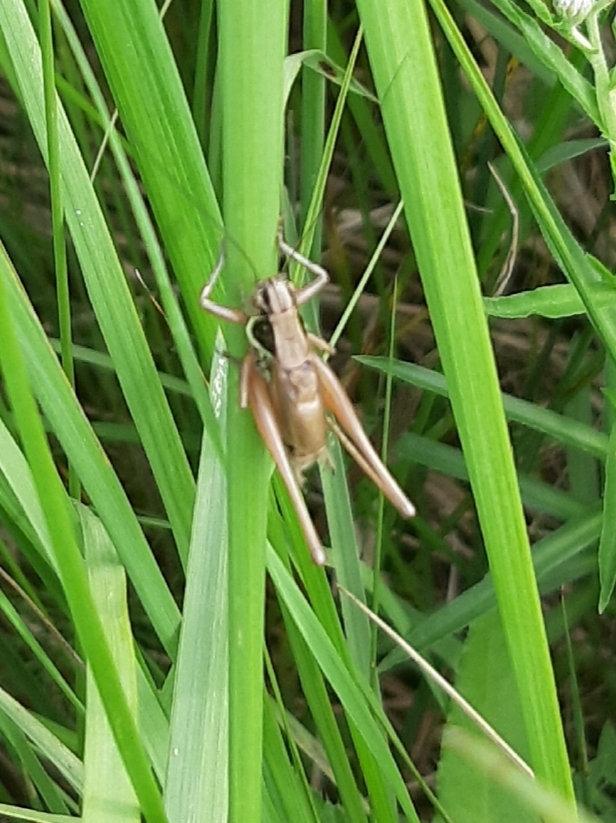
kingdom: Animalia
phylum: Arthropoda
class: Insecta
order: Orthoptera
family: Tettigoniidae
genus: Roeseliana
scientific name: Roeseliana roeselii
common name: Roesel's bush cricket
